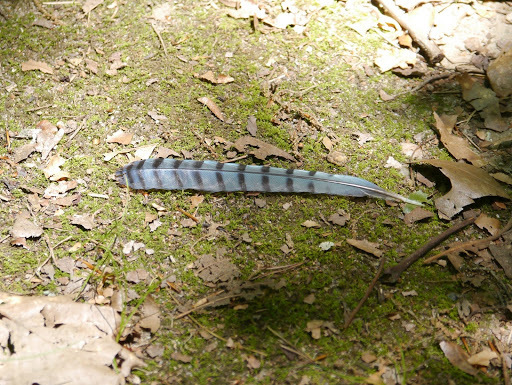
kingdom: Animalia
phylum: Chordata
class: Aves
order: Passeriformes
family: Corvidae
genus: Cyanocitta
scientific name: Cyanocitta cristata
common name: Blue jay
